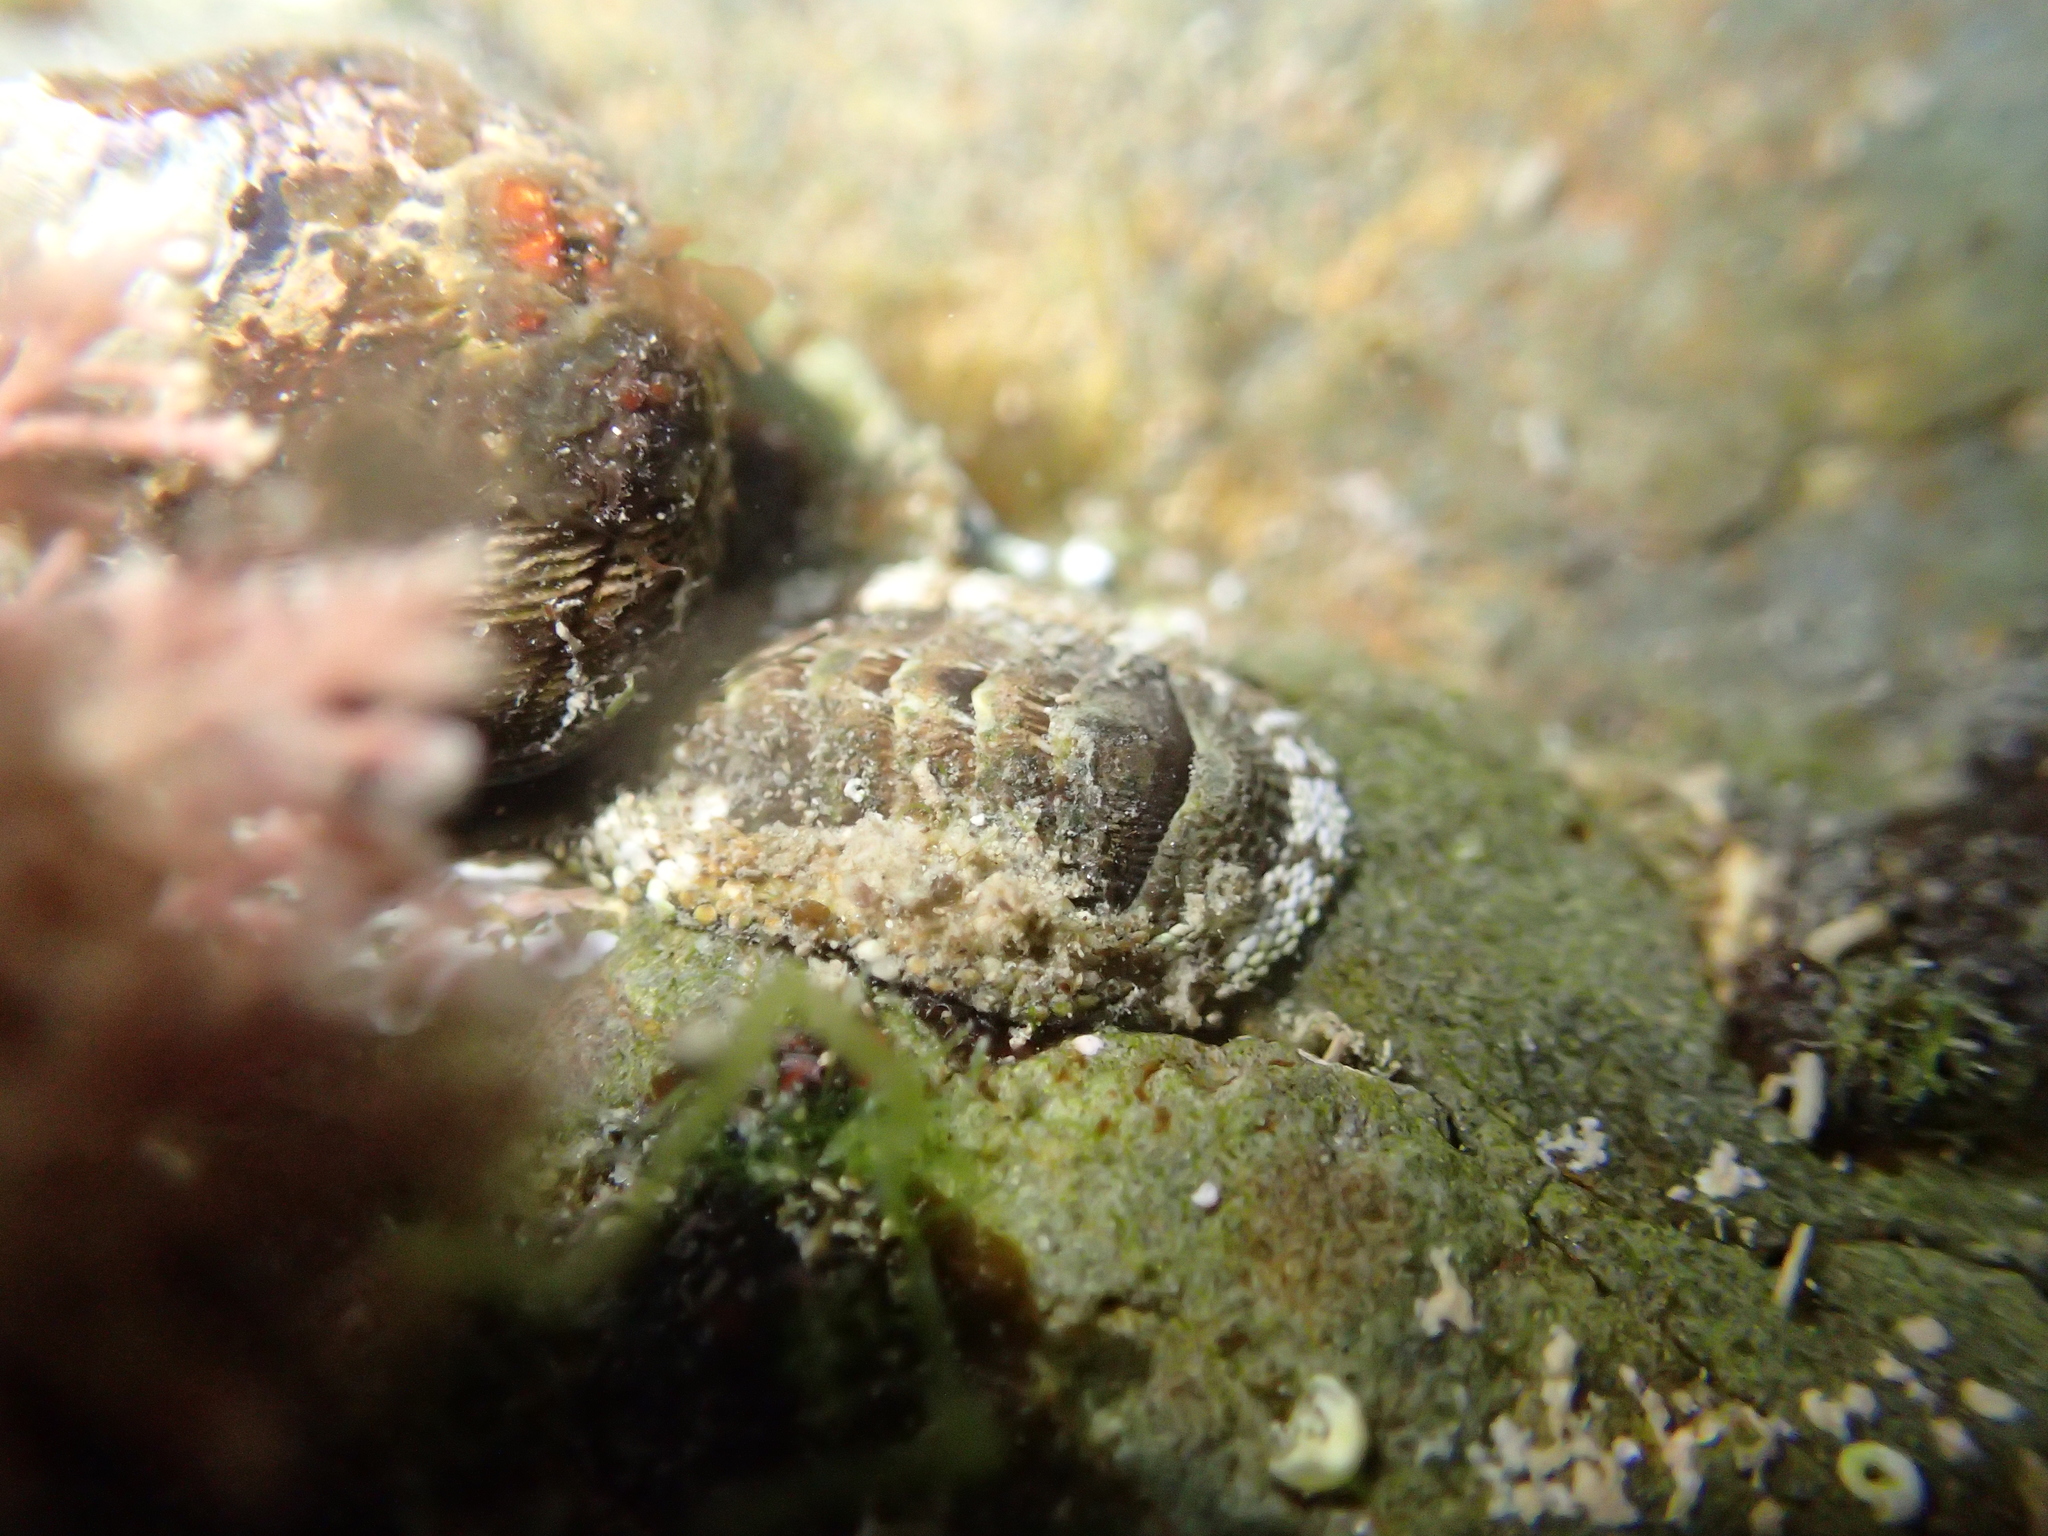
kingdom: Animalia
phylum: Mollusca
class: Polyplacophora
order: Chitonida
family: Chitonidae
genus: Sypharochiton
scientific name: Sypharochiton pelliserpentis
